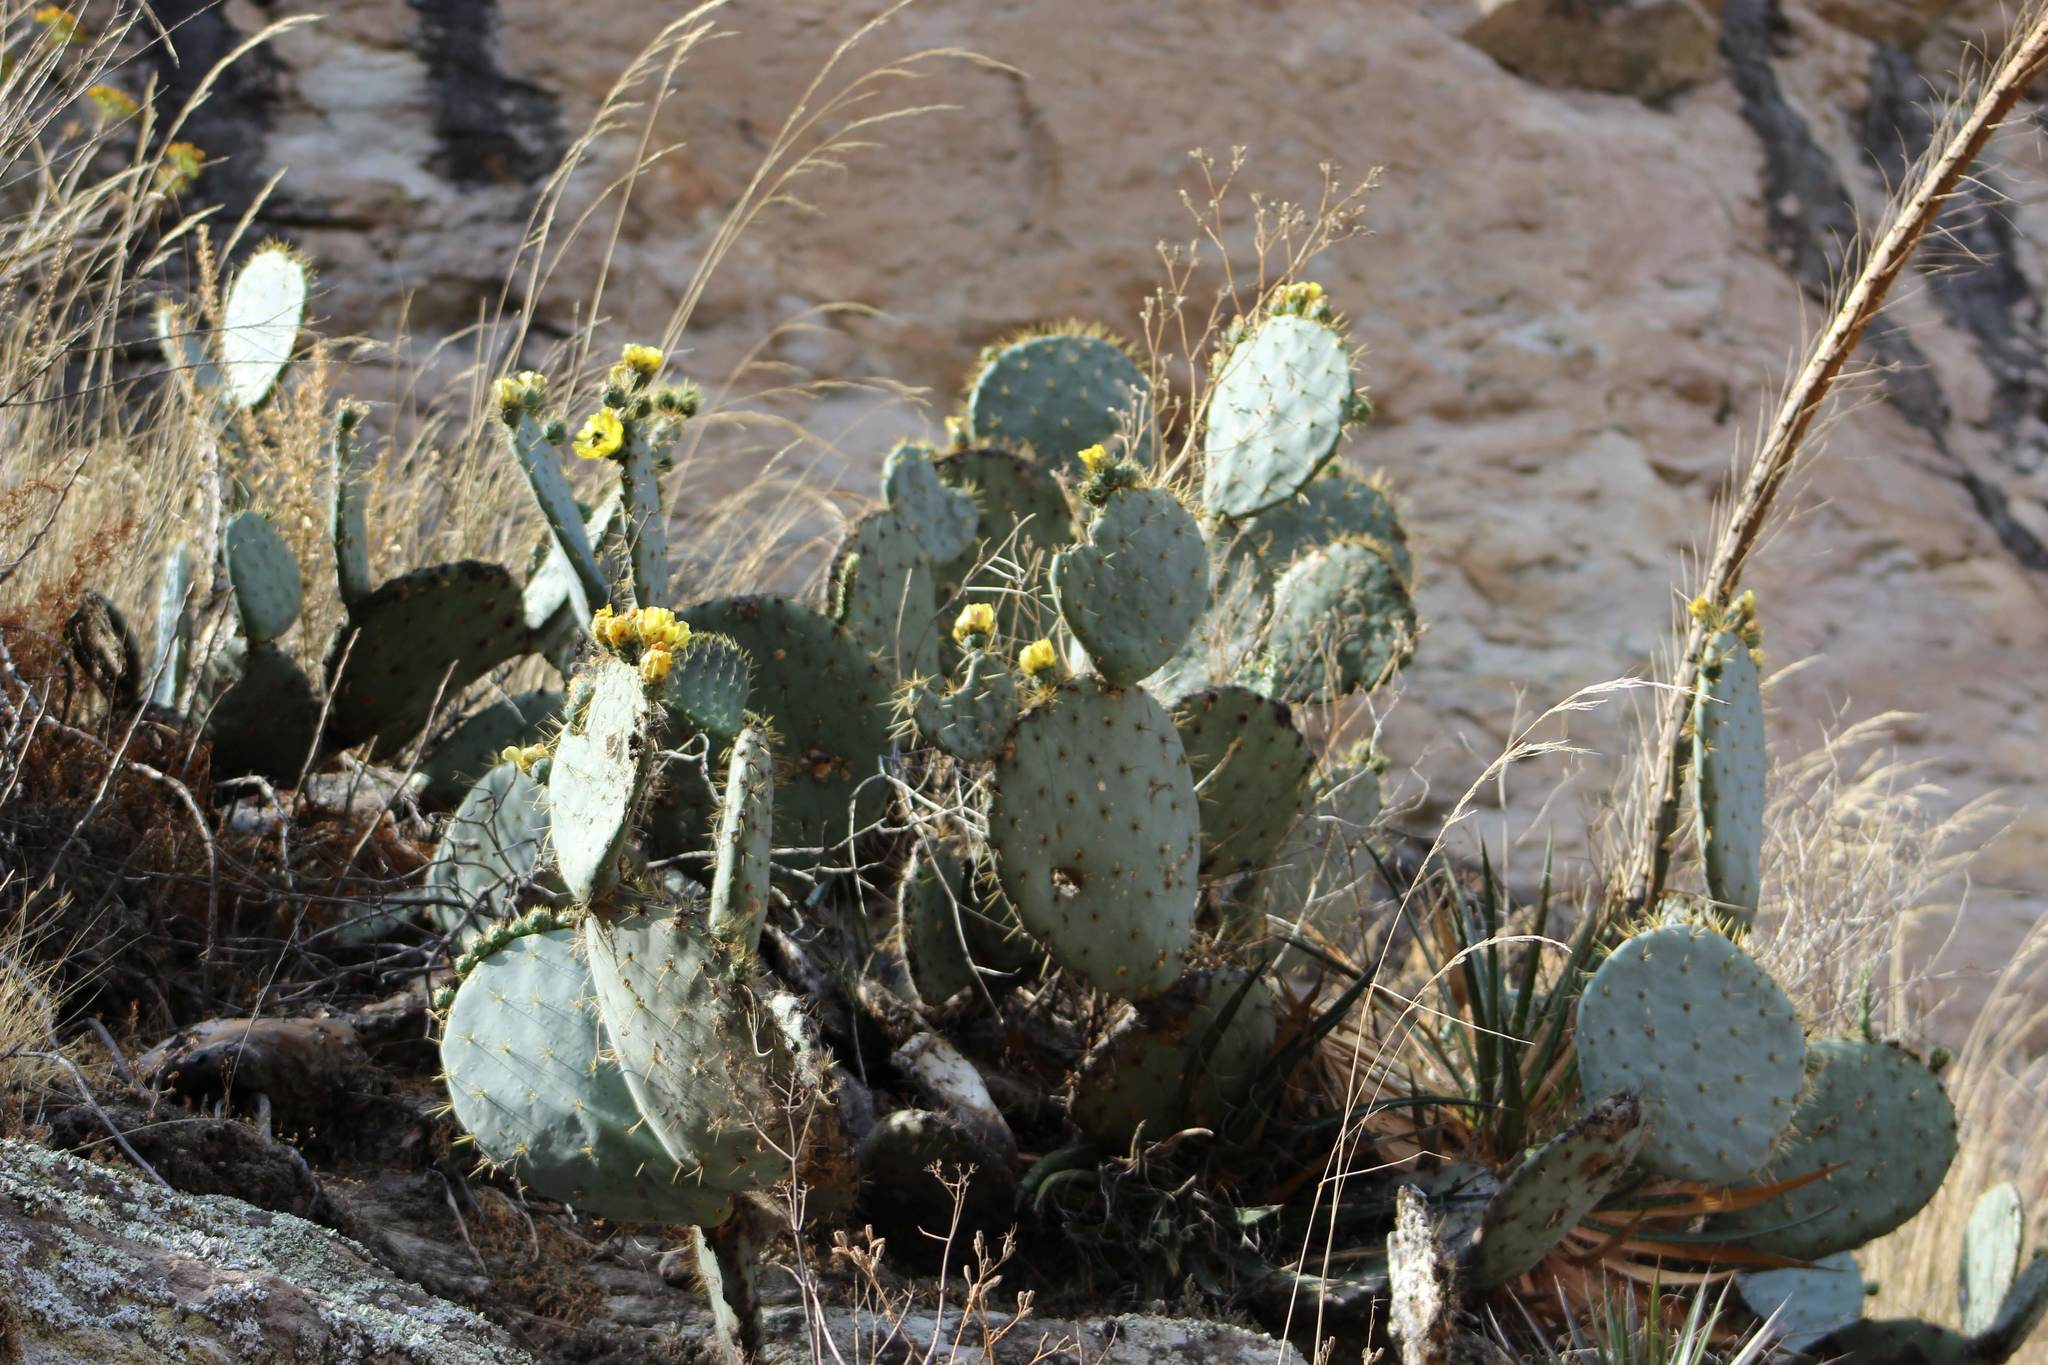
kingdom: Plantae
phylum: Tracheophyta
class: Magnoliopsida
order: Caryophyllales
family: Cactaceae
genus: Opuntia
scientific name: Opuntia robusta
